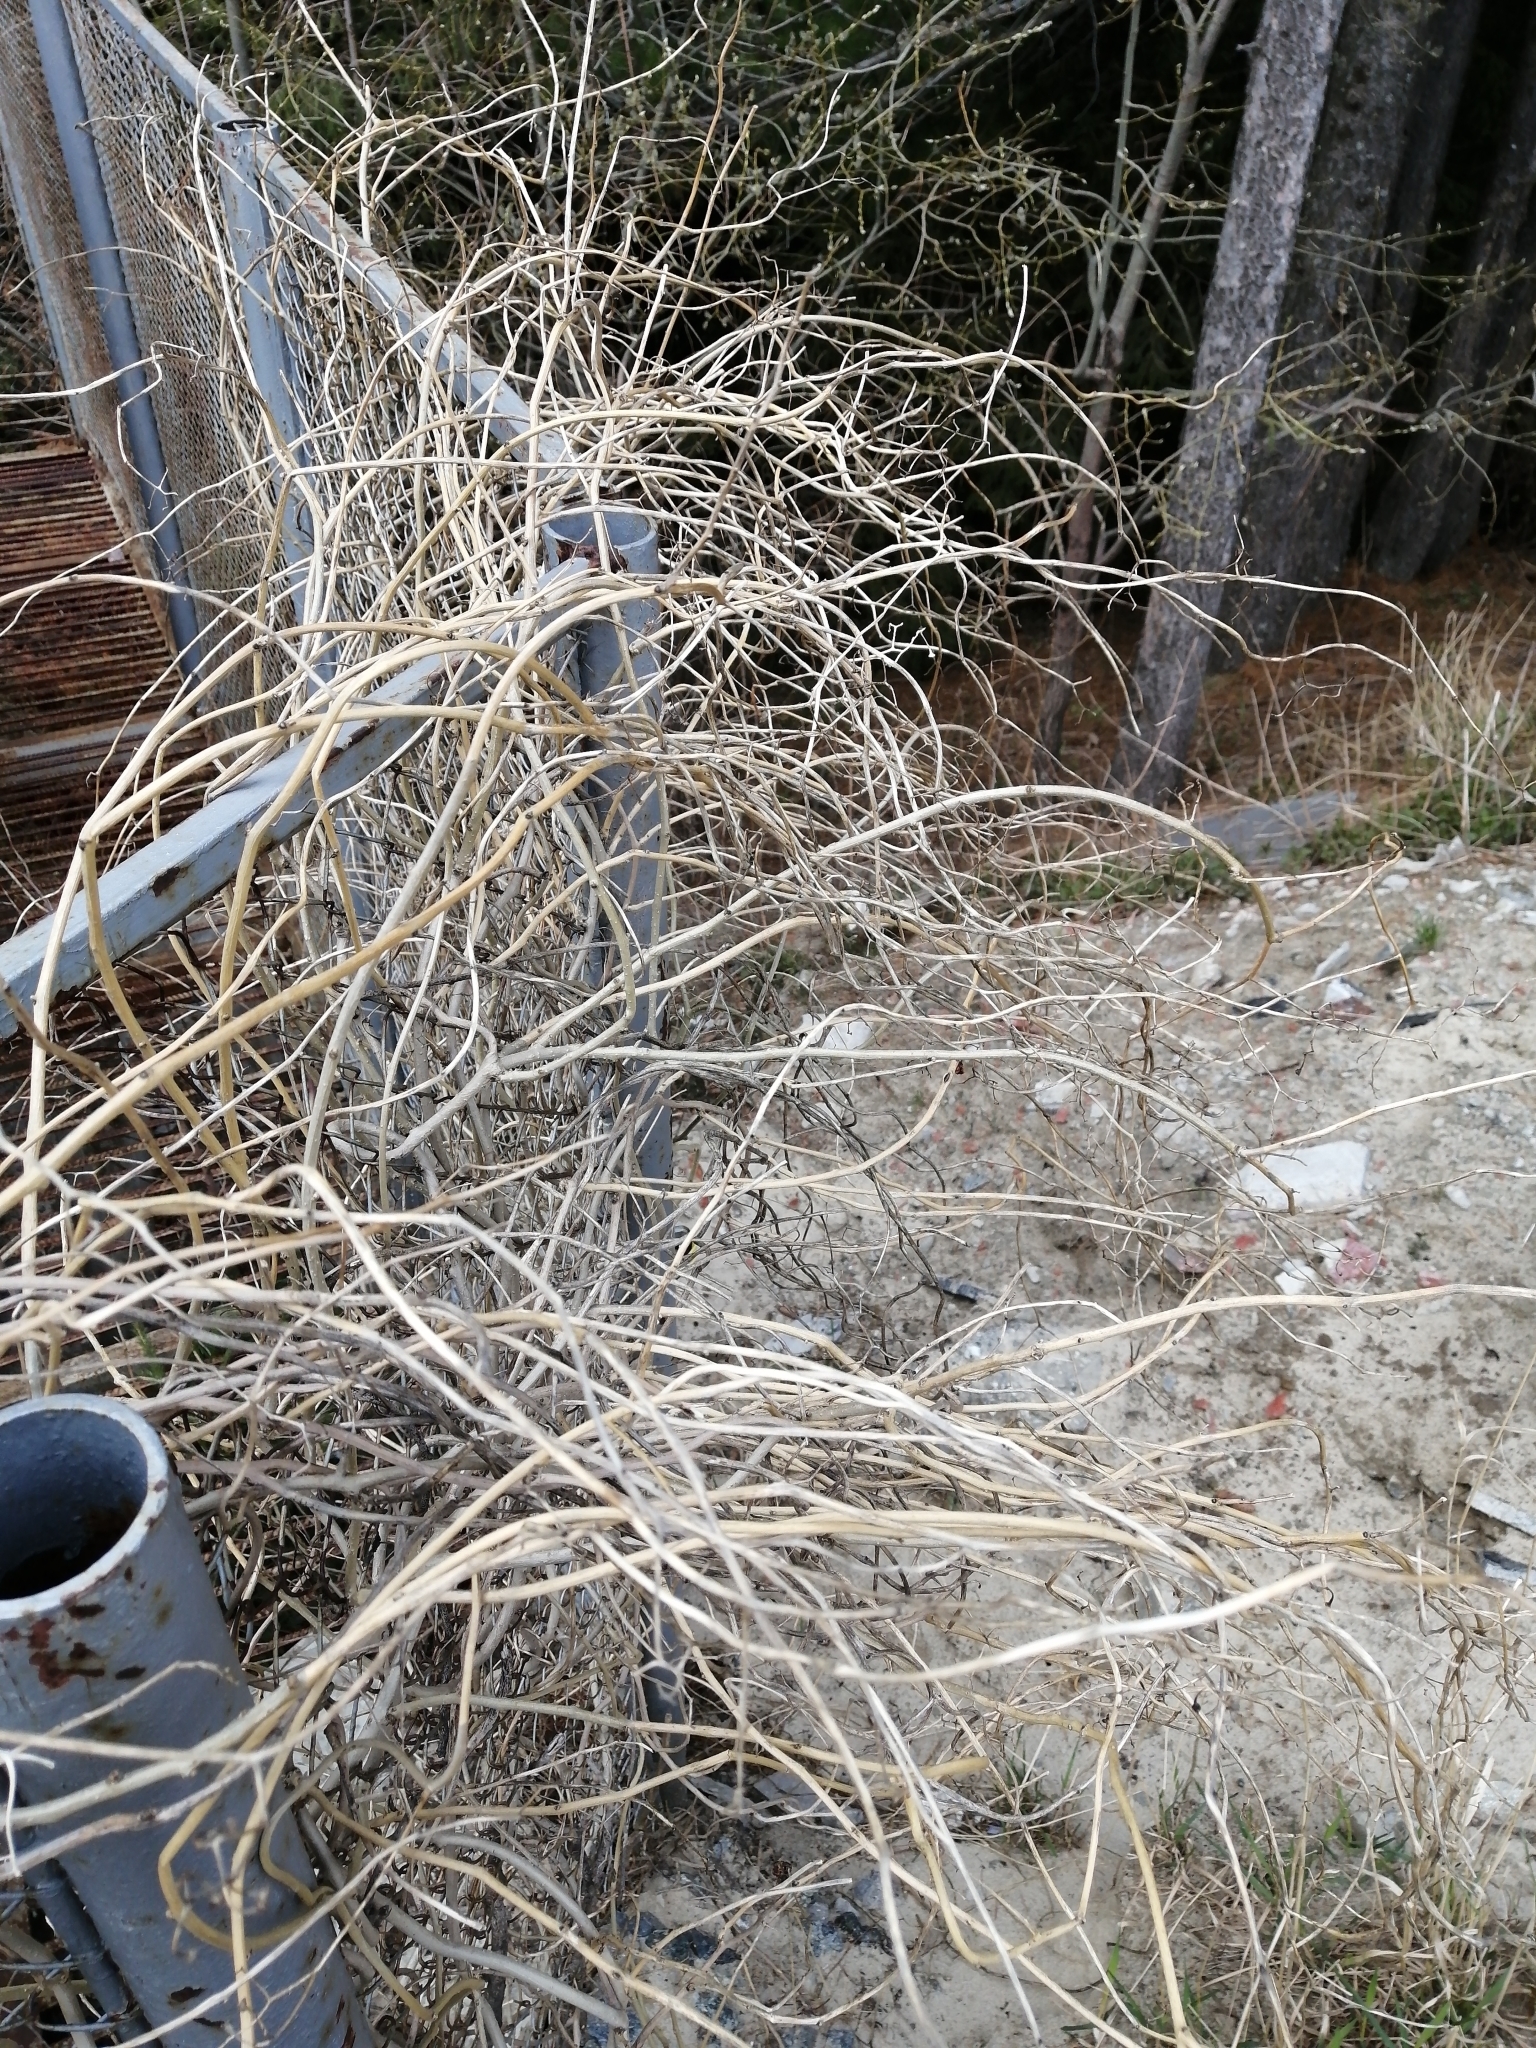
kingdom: Plantae
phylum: Tracheophyta
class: Magnoliopsida
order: Solanales
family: Solanaceae
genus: Solanum
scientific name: Solanum dulcamara
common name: Climbing nightshade
